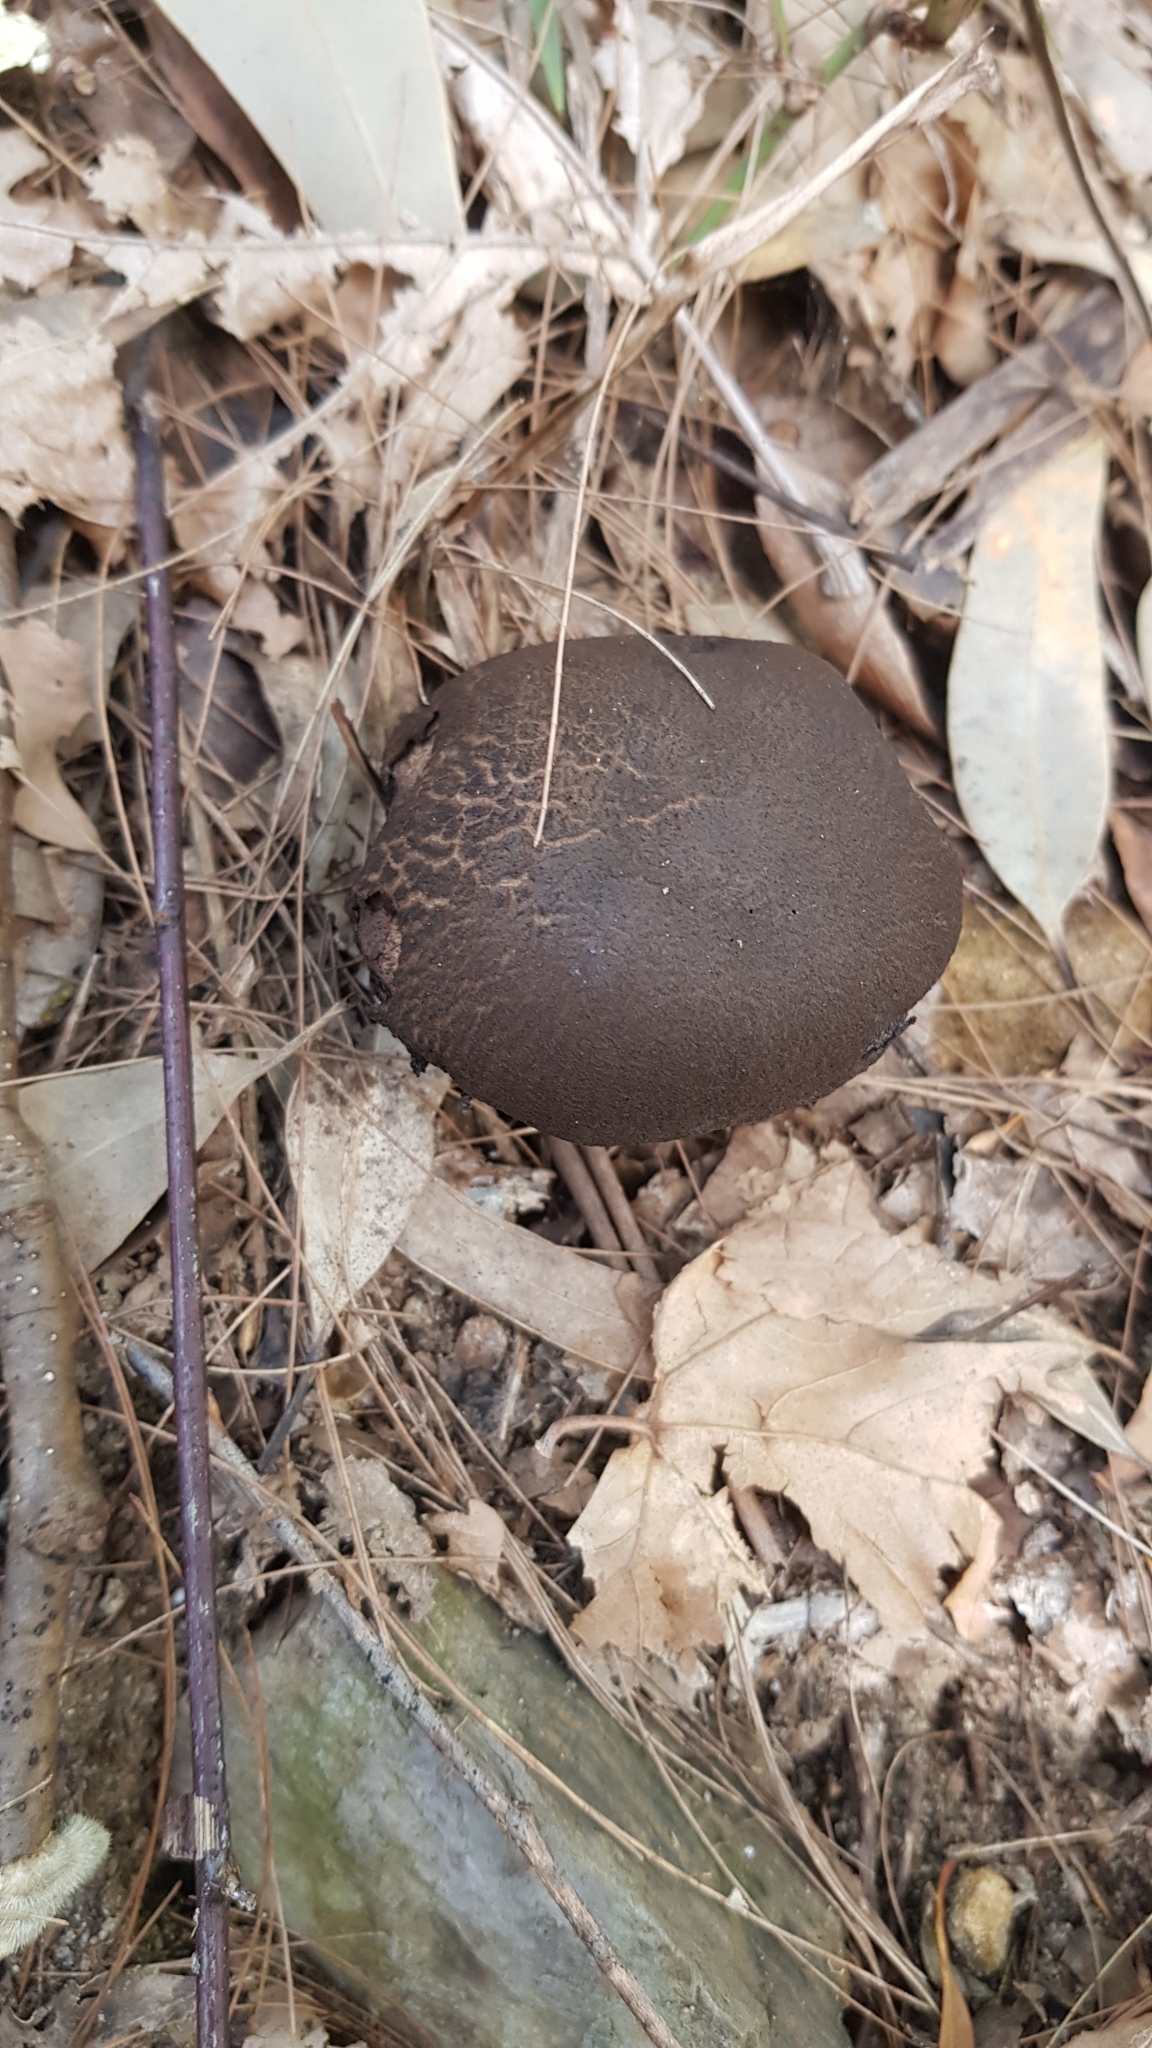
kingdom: Fungi
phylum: Basidiomycota
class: Agaricomycetes
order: Boletales
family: Boletaceae
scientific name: Boletaceae
